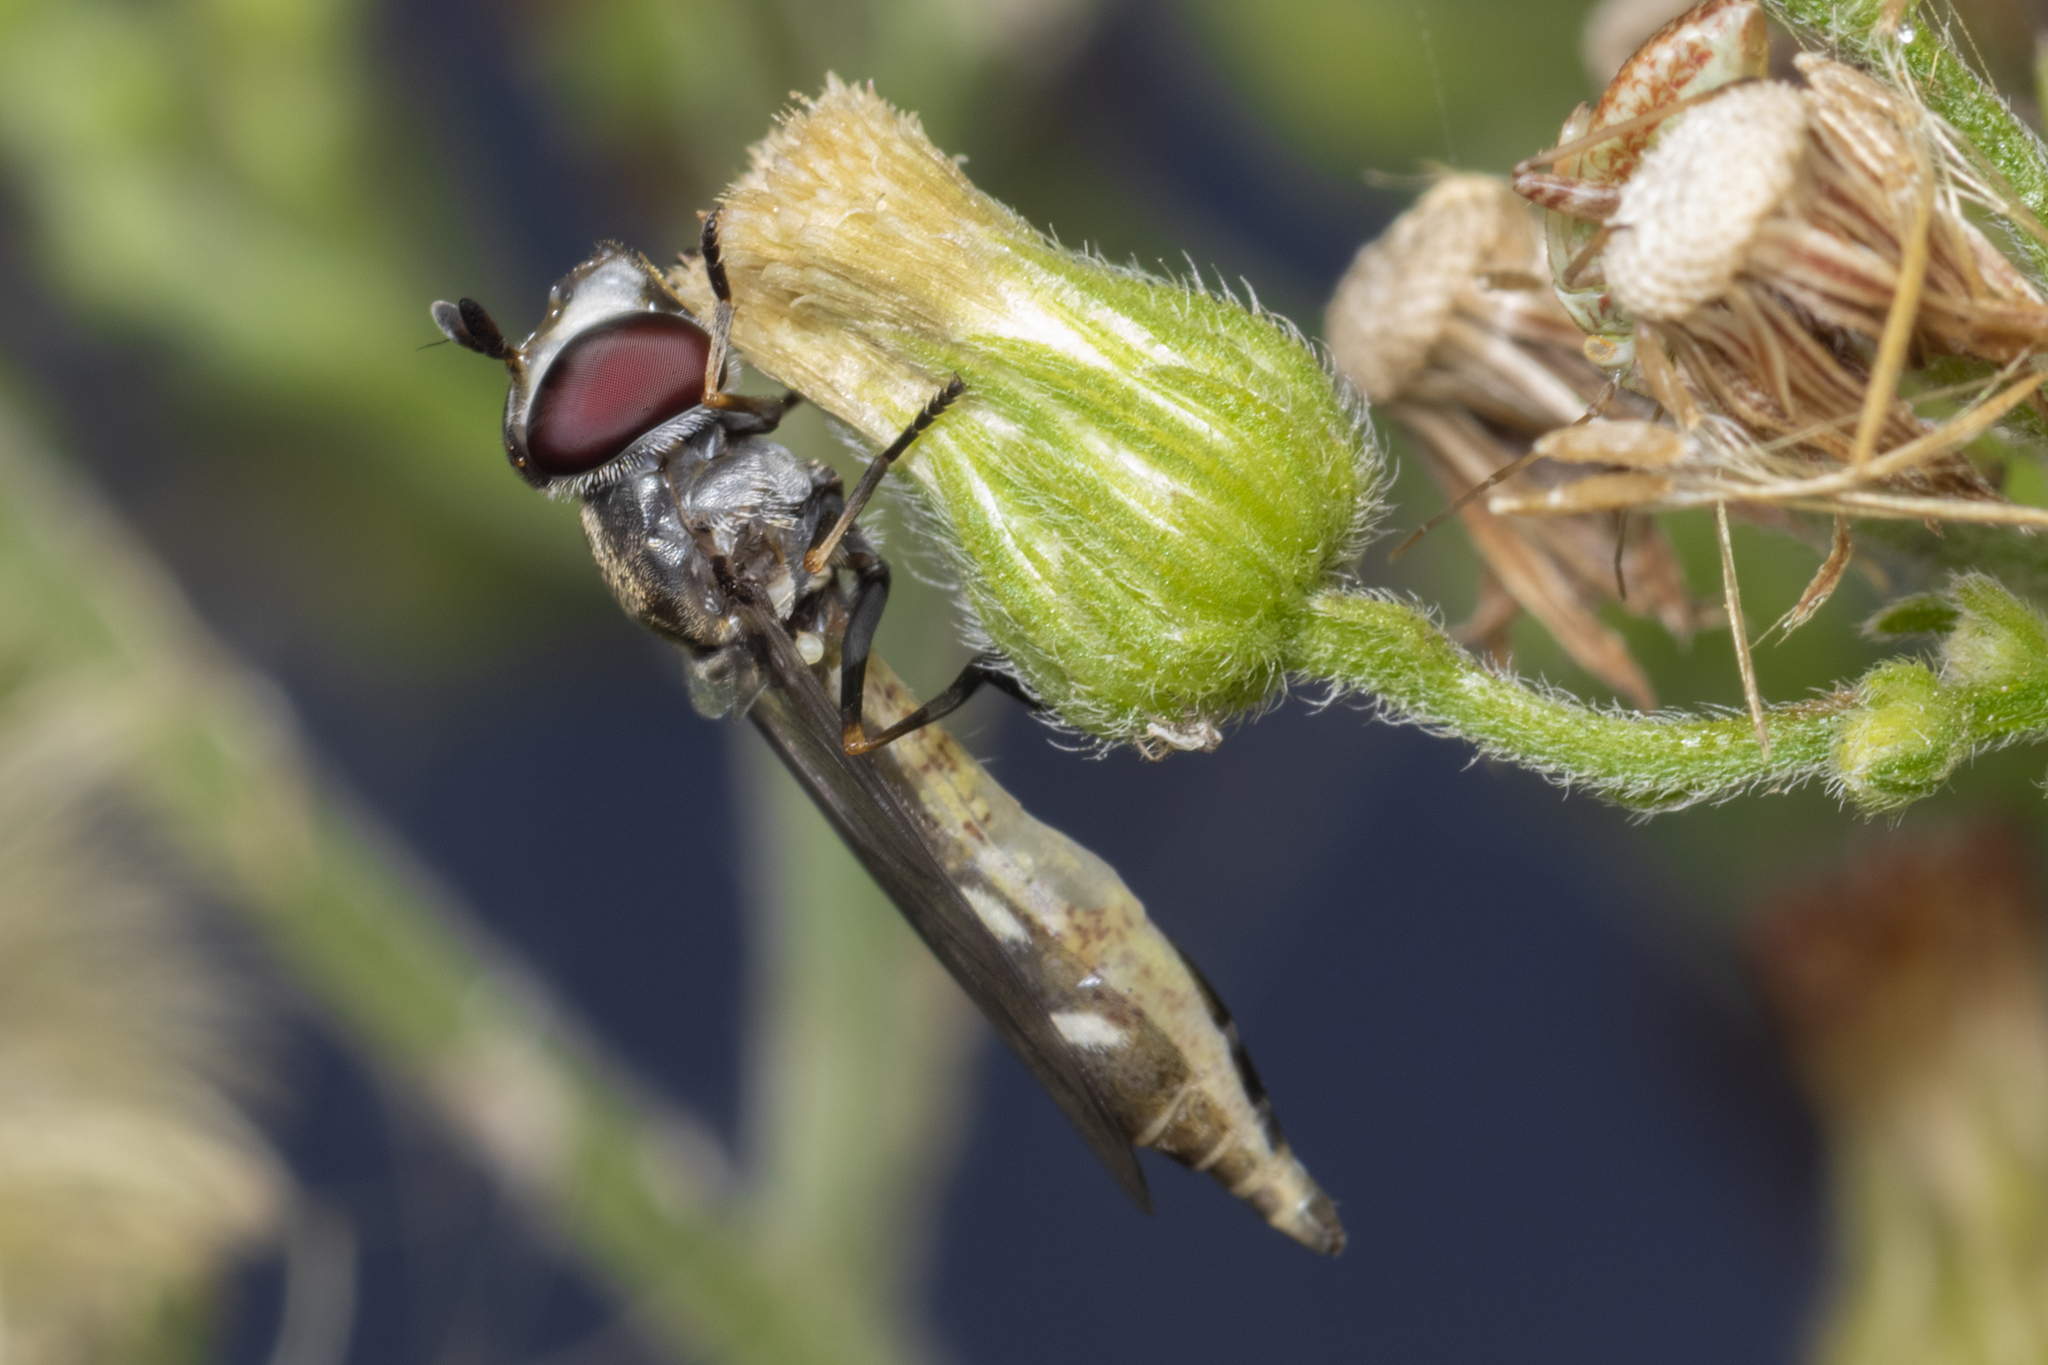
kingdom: Animalia
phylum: Arthropoda
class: Insecta
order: Diptera
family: Syrphidae
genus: Dioprosopa
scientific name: Dioprosopa clavatus
